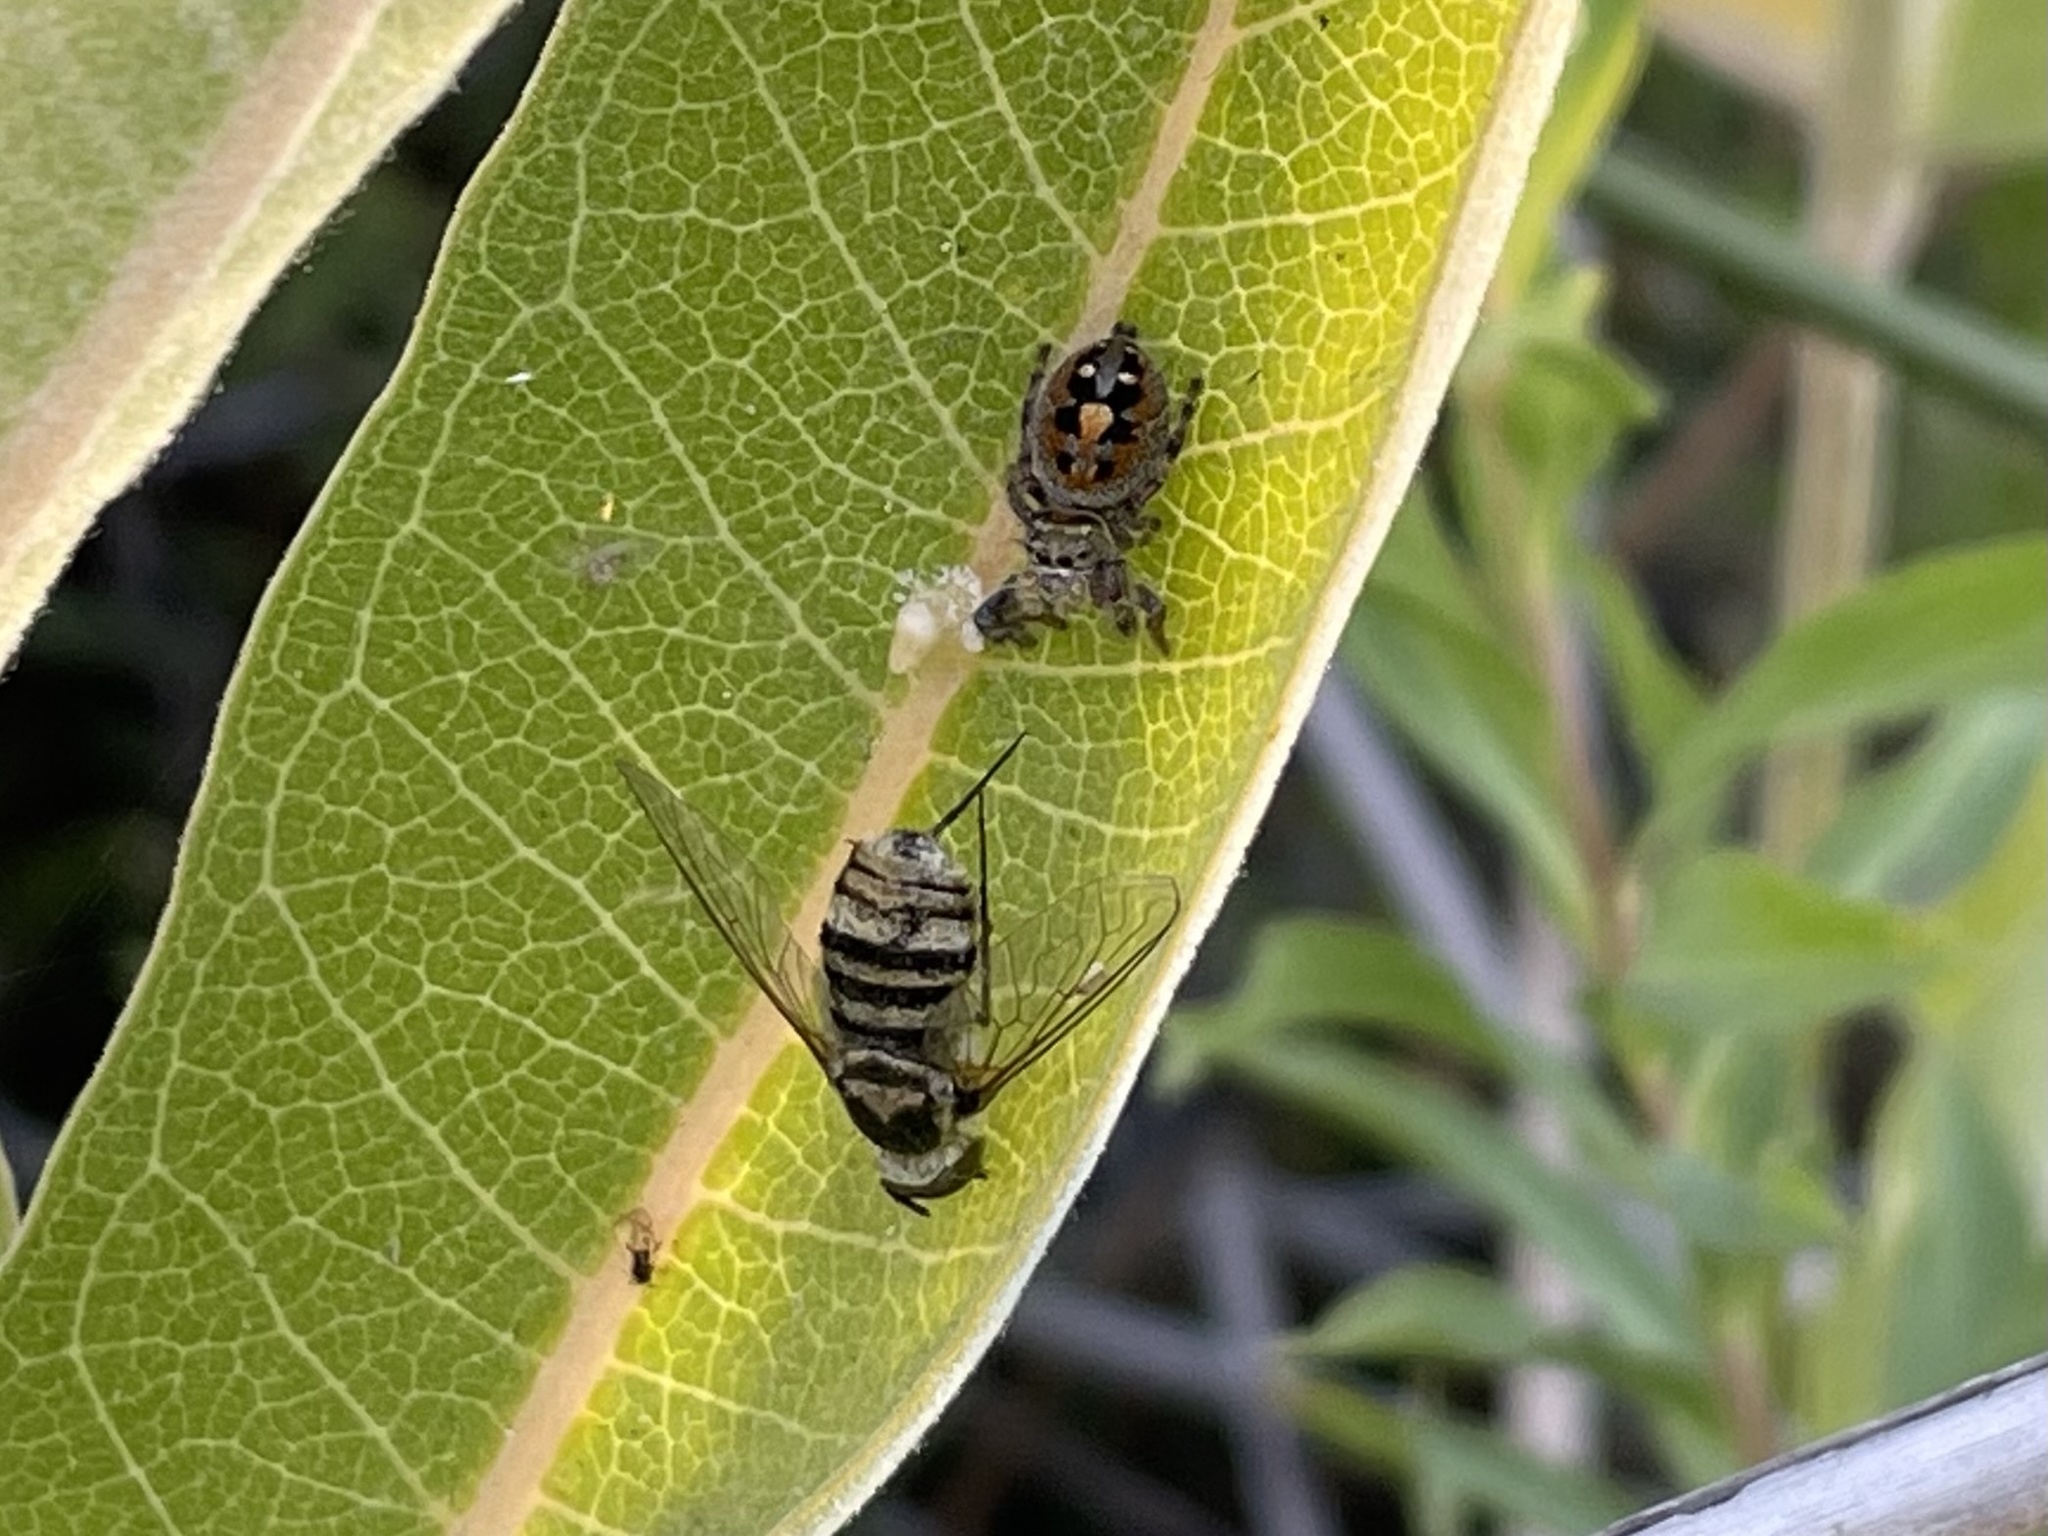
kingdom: Animalia
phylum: Arthropoda
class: Arachnida
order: Araneae
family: Salticidae
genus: Phidippus
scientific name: Phidippus audax
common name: Bold jumper
